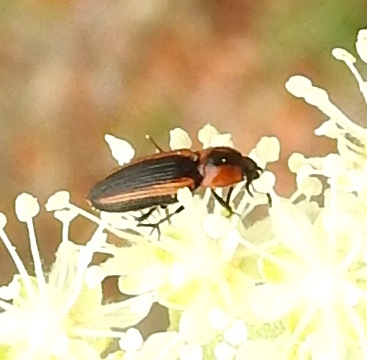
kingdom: Animalia
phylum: Arthropoda
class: Insecta
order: Coleoptera
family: Elateridae
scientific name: Elateridae
